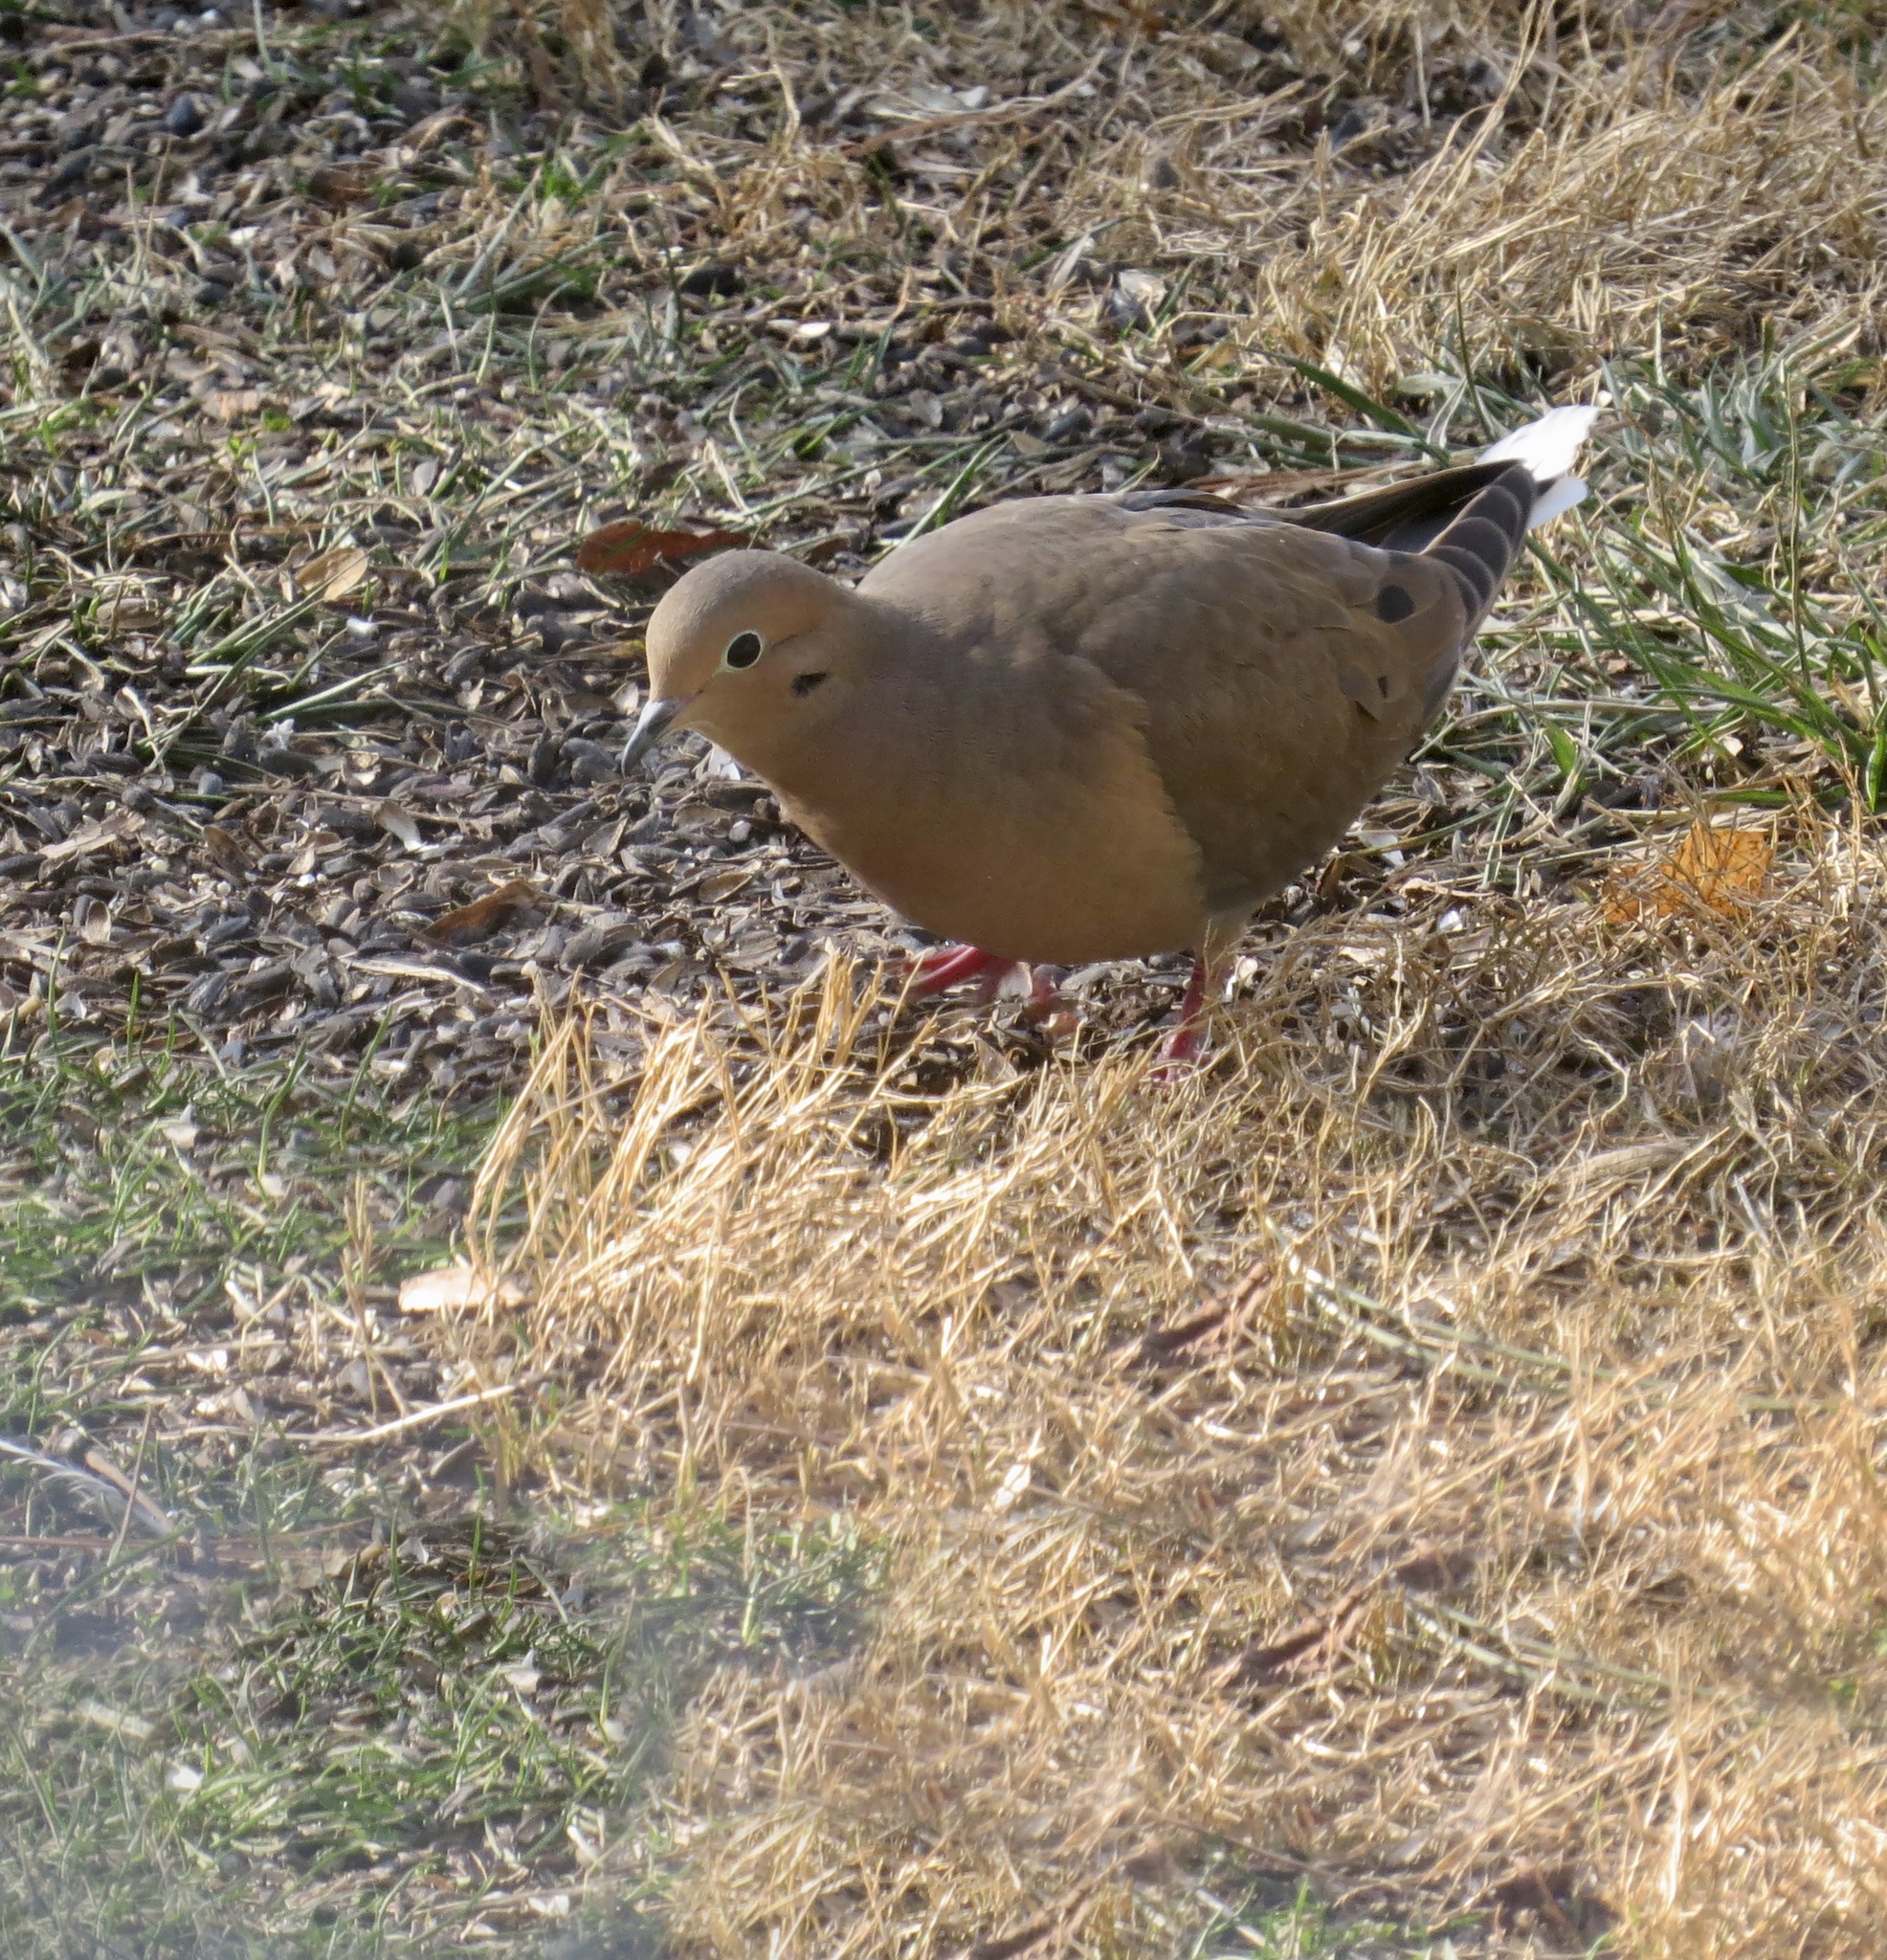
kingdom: Animalia
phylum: Chordata
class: Aves
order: Columbiformes
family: Columbidae
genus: Zenaida
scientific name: Zenaida macroura
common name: Mourning dove
